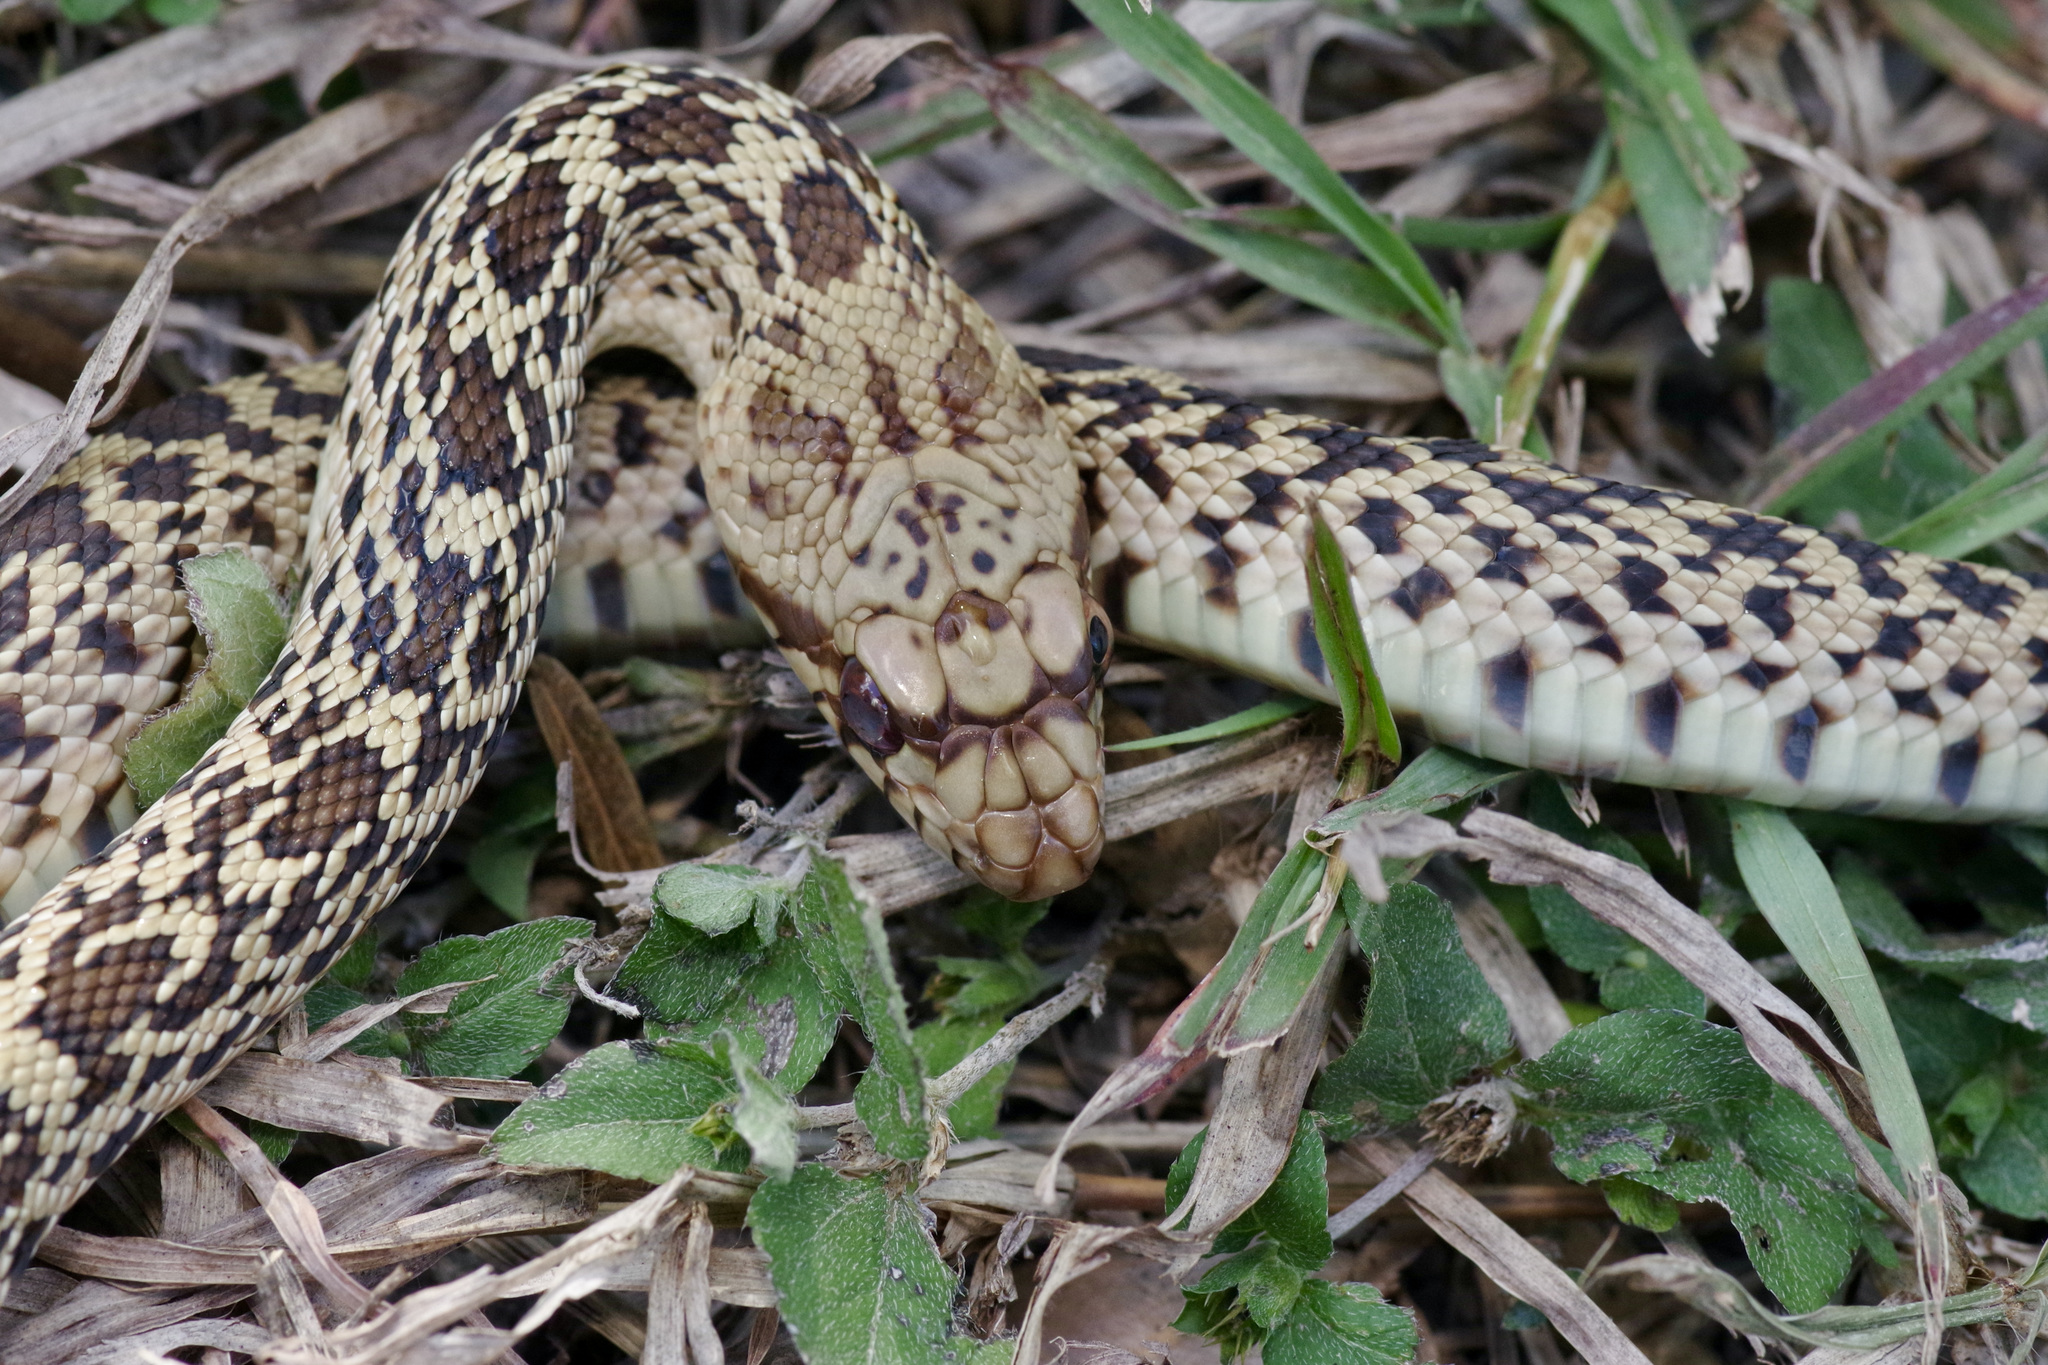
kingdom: Animalia
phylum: Chordata
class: Squamata
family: Colubridae
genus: Pituophis
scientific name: Pituophis catenifer
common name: Gopher snake
